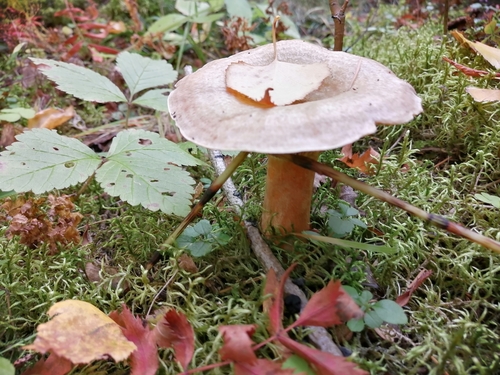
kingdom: Fungi
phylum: Basidiomycota
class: Agaricomycetes
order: Russulales
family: Russulaceae
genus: Lactarius
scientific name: Lactarius deterrimus
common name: False saffron milkcap
